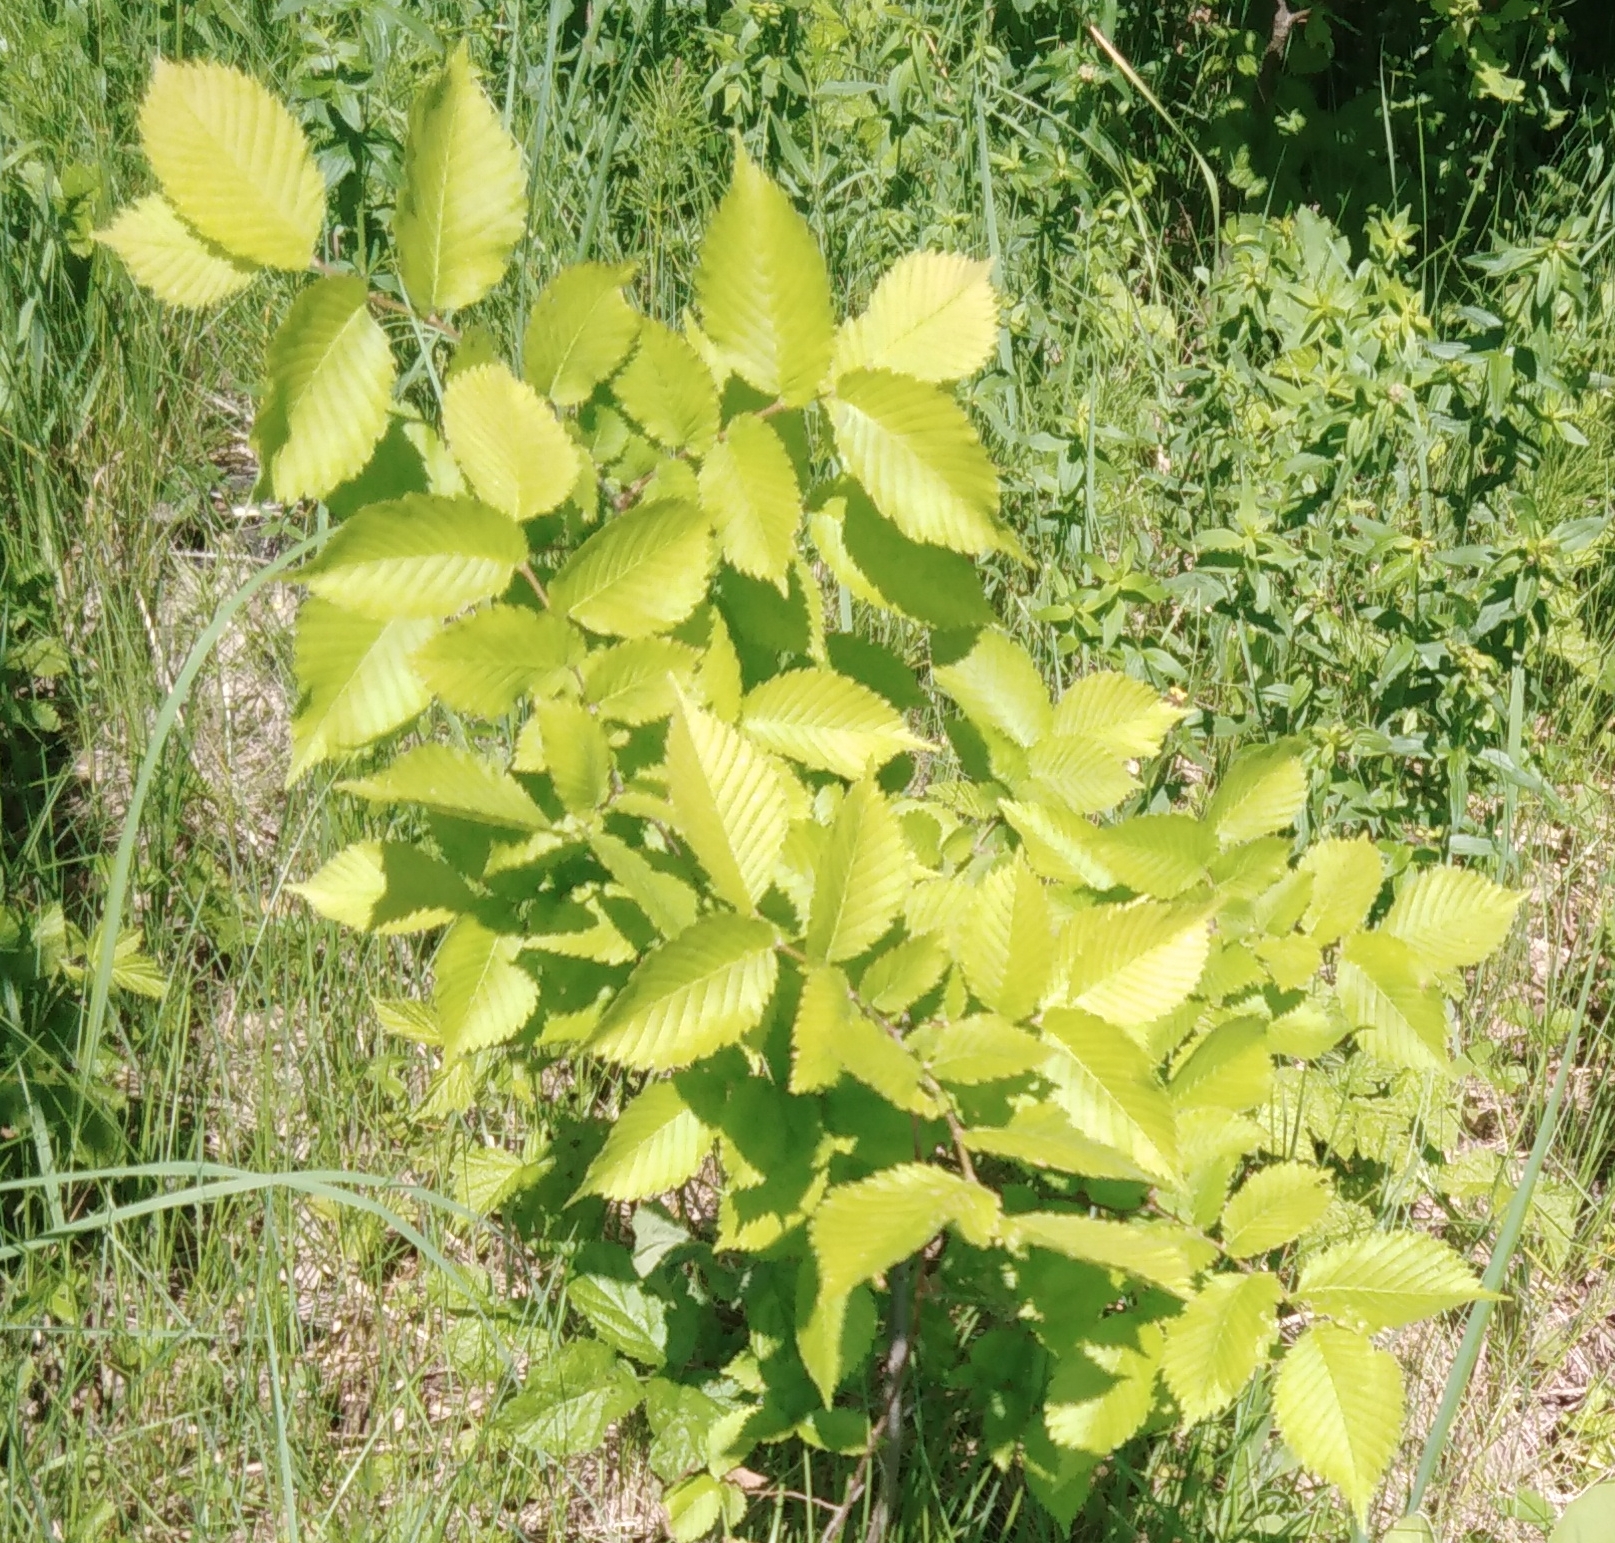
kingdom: Plantae
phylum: Tracheophyta
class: Magnoliopsida
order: Rosales
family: Ulmaceae
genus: Ulmus
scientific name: Ulmus laevis
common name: European white-elm
